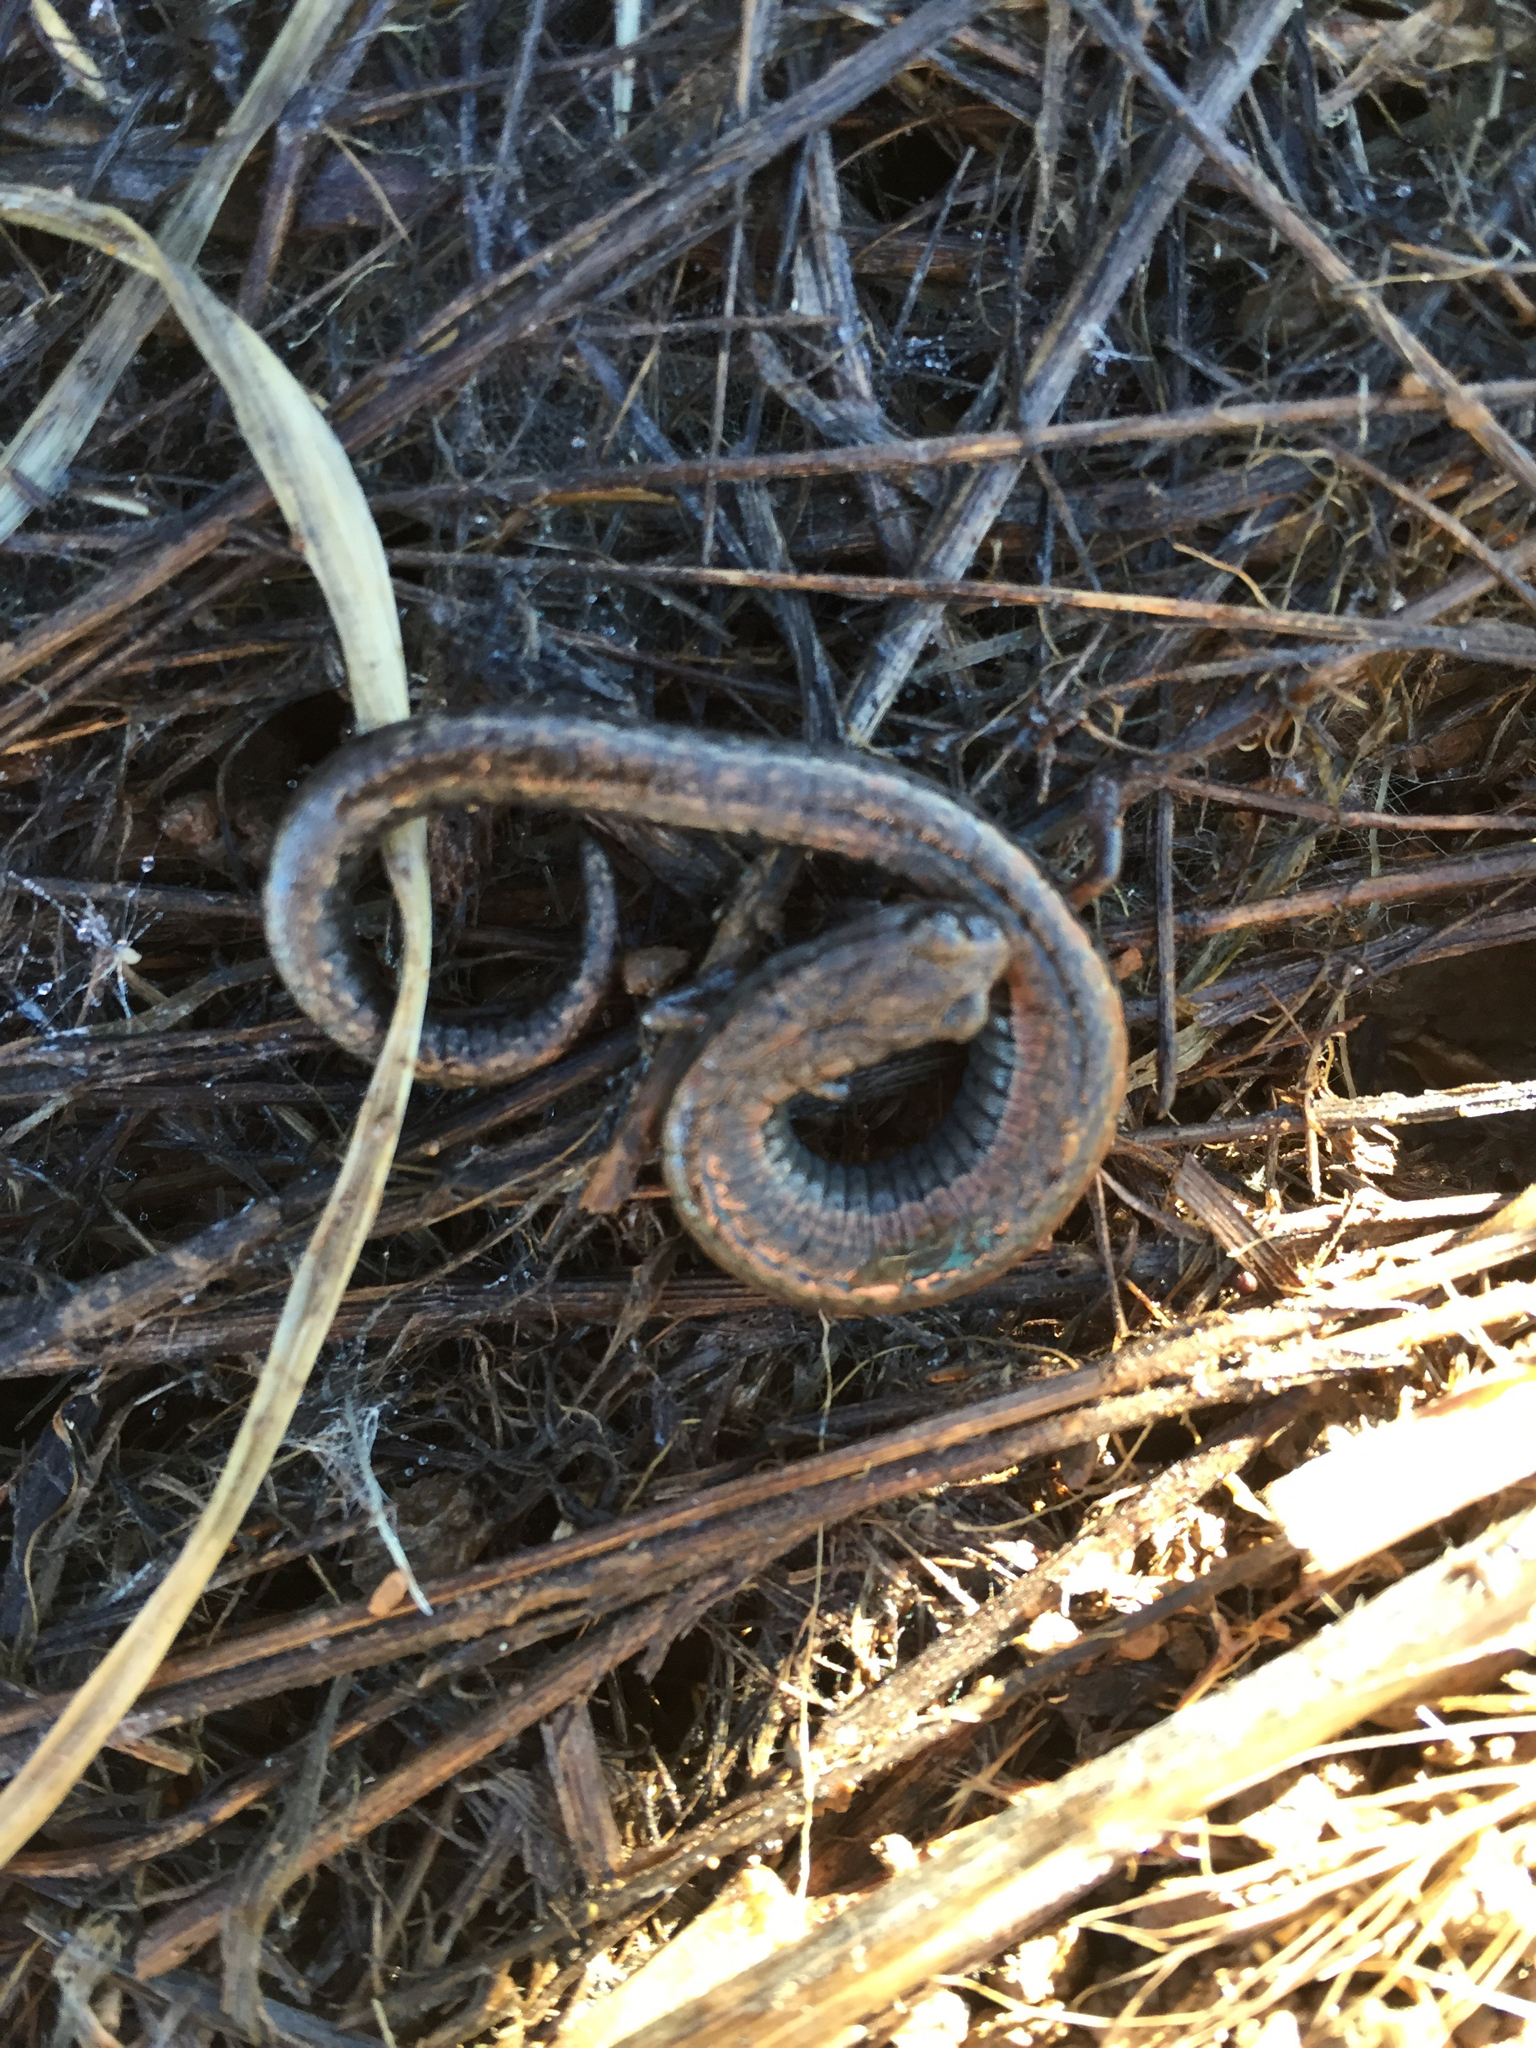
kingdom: Animalia
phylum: Chordata
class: Amphibia
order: Caudata
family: Plethodontidae
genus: Batrachoseps
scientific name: Batrachoseps attenuatus
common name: California slender salamander
